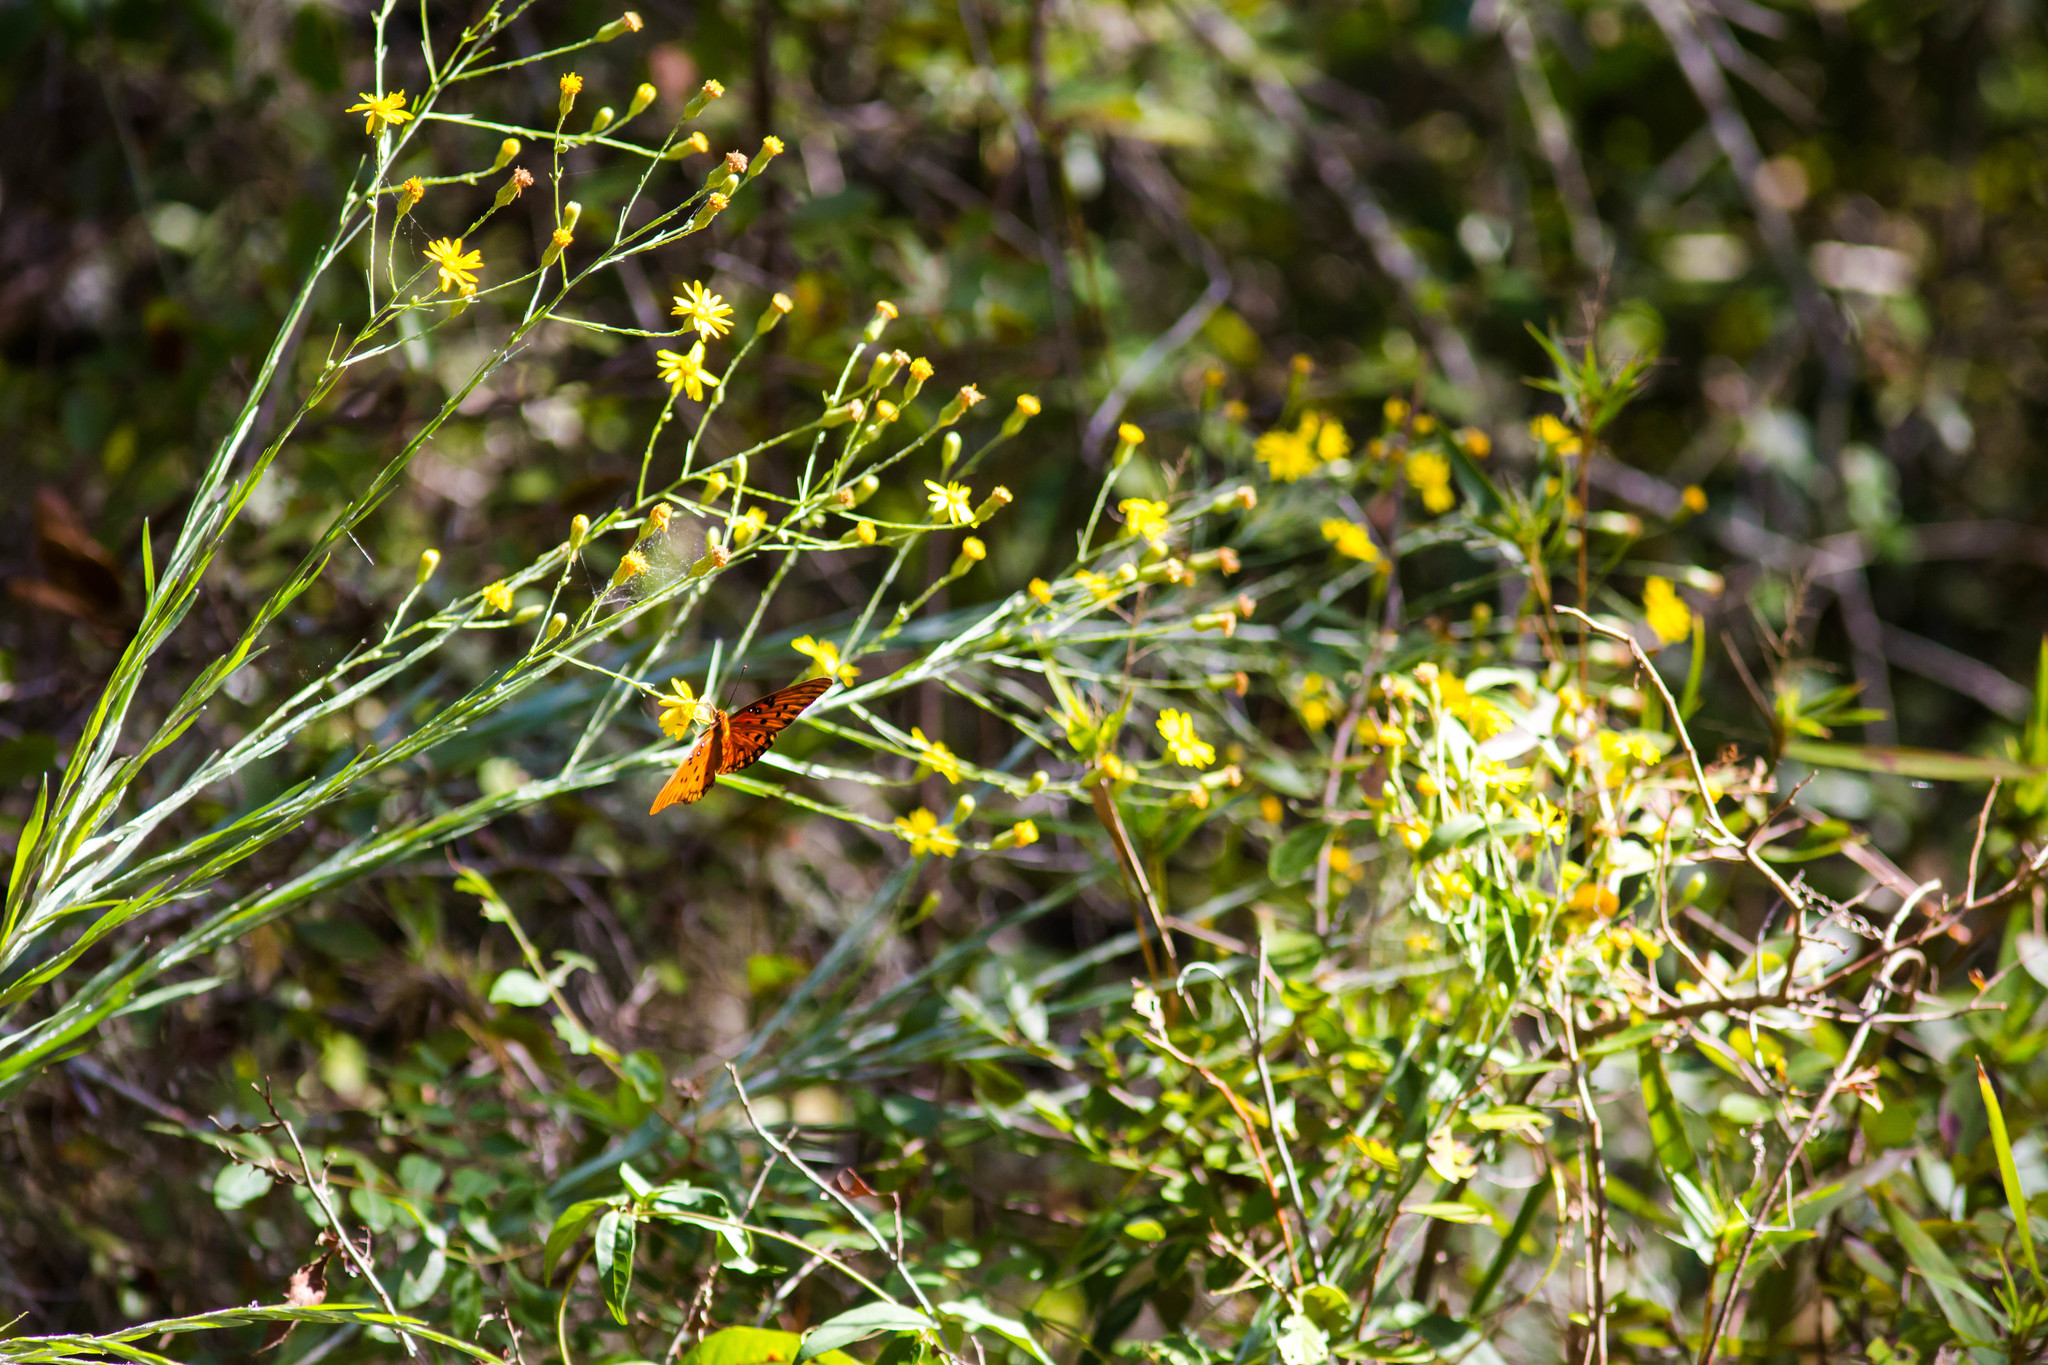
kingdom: Animalia
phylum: Arthropoda
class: Insecta
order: Lepidoptera
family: Nymphalidae
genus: Dione
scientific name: Dione vanillae
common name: Gulf fritillary
